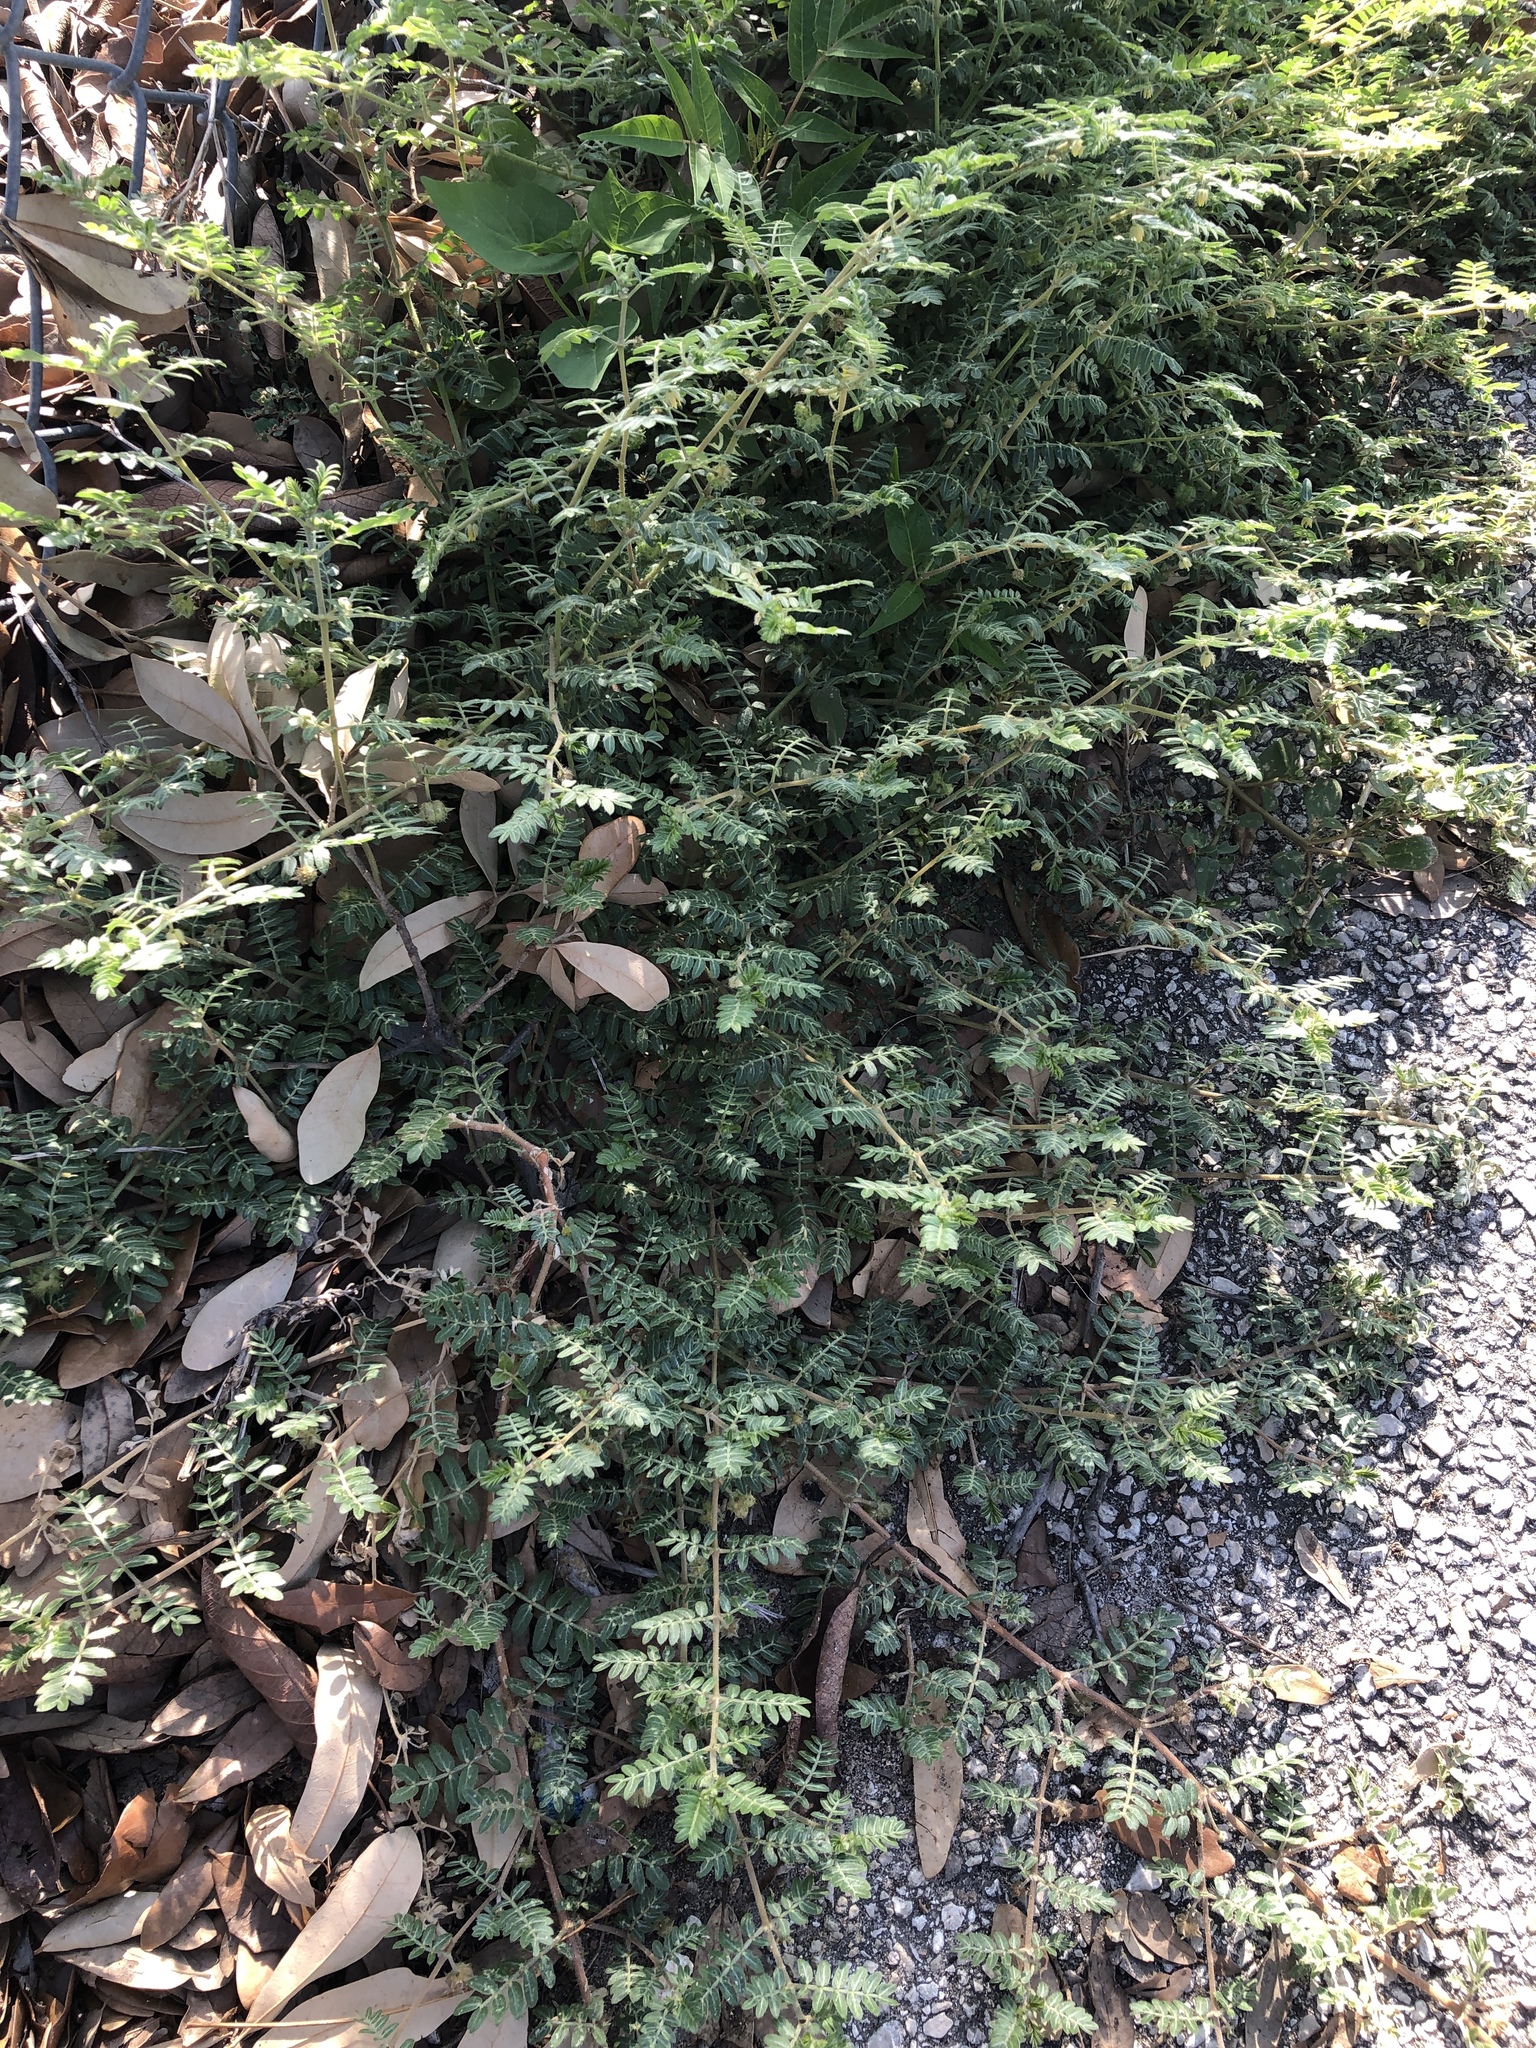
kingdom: Plantae
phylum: Tracheophyta
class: Magnoliopsida
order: Zygophyllales
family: Zygophyllaceae
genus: Tribulus
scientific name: Tribulus terrestris
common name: Puncturevine
